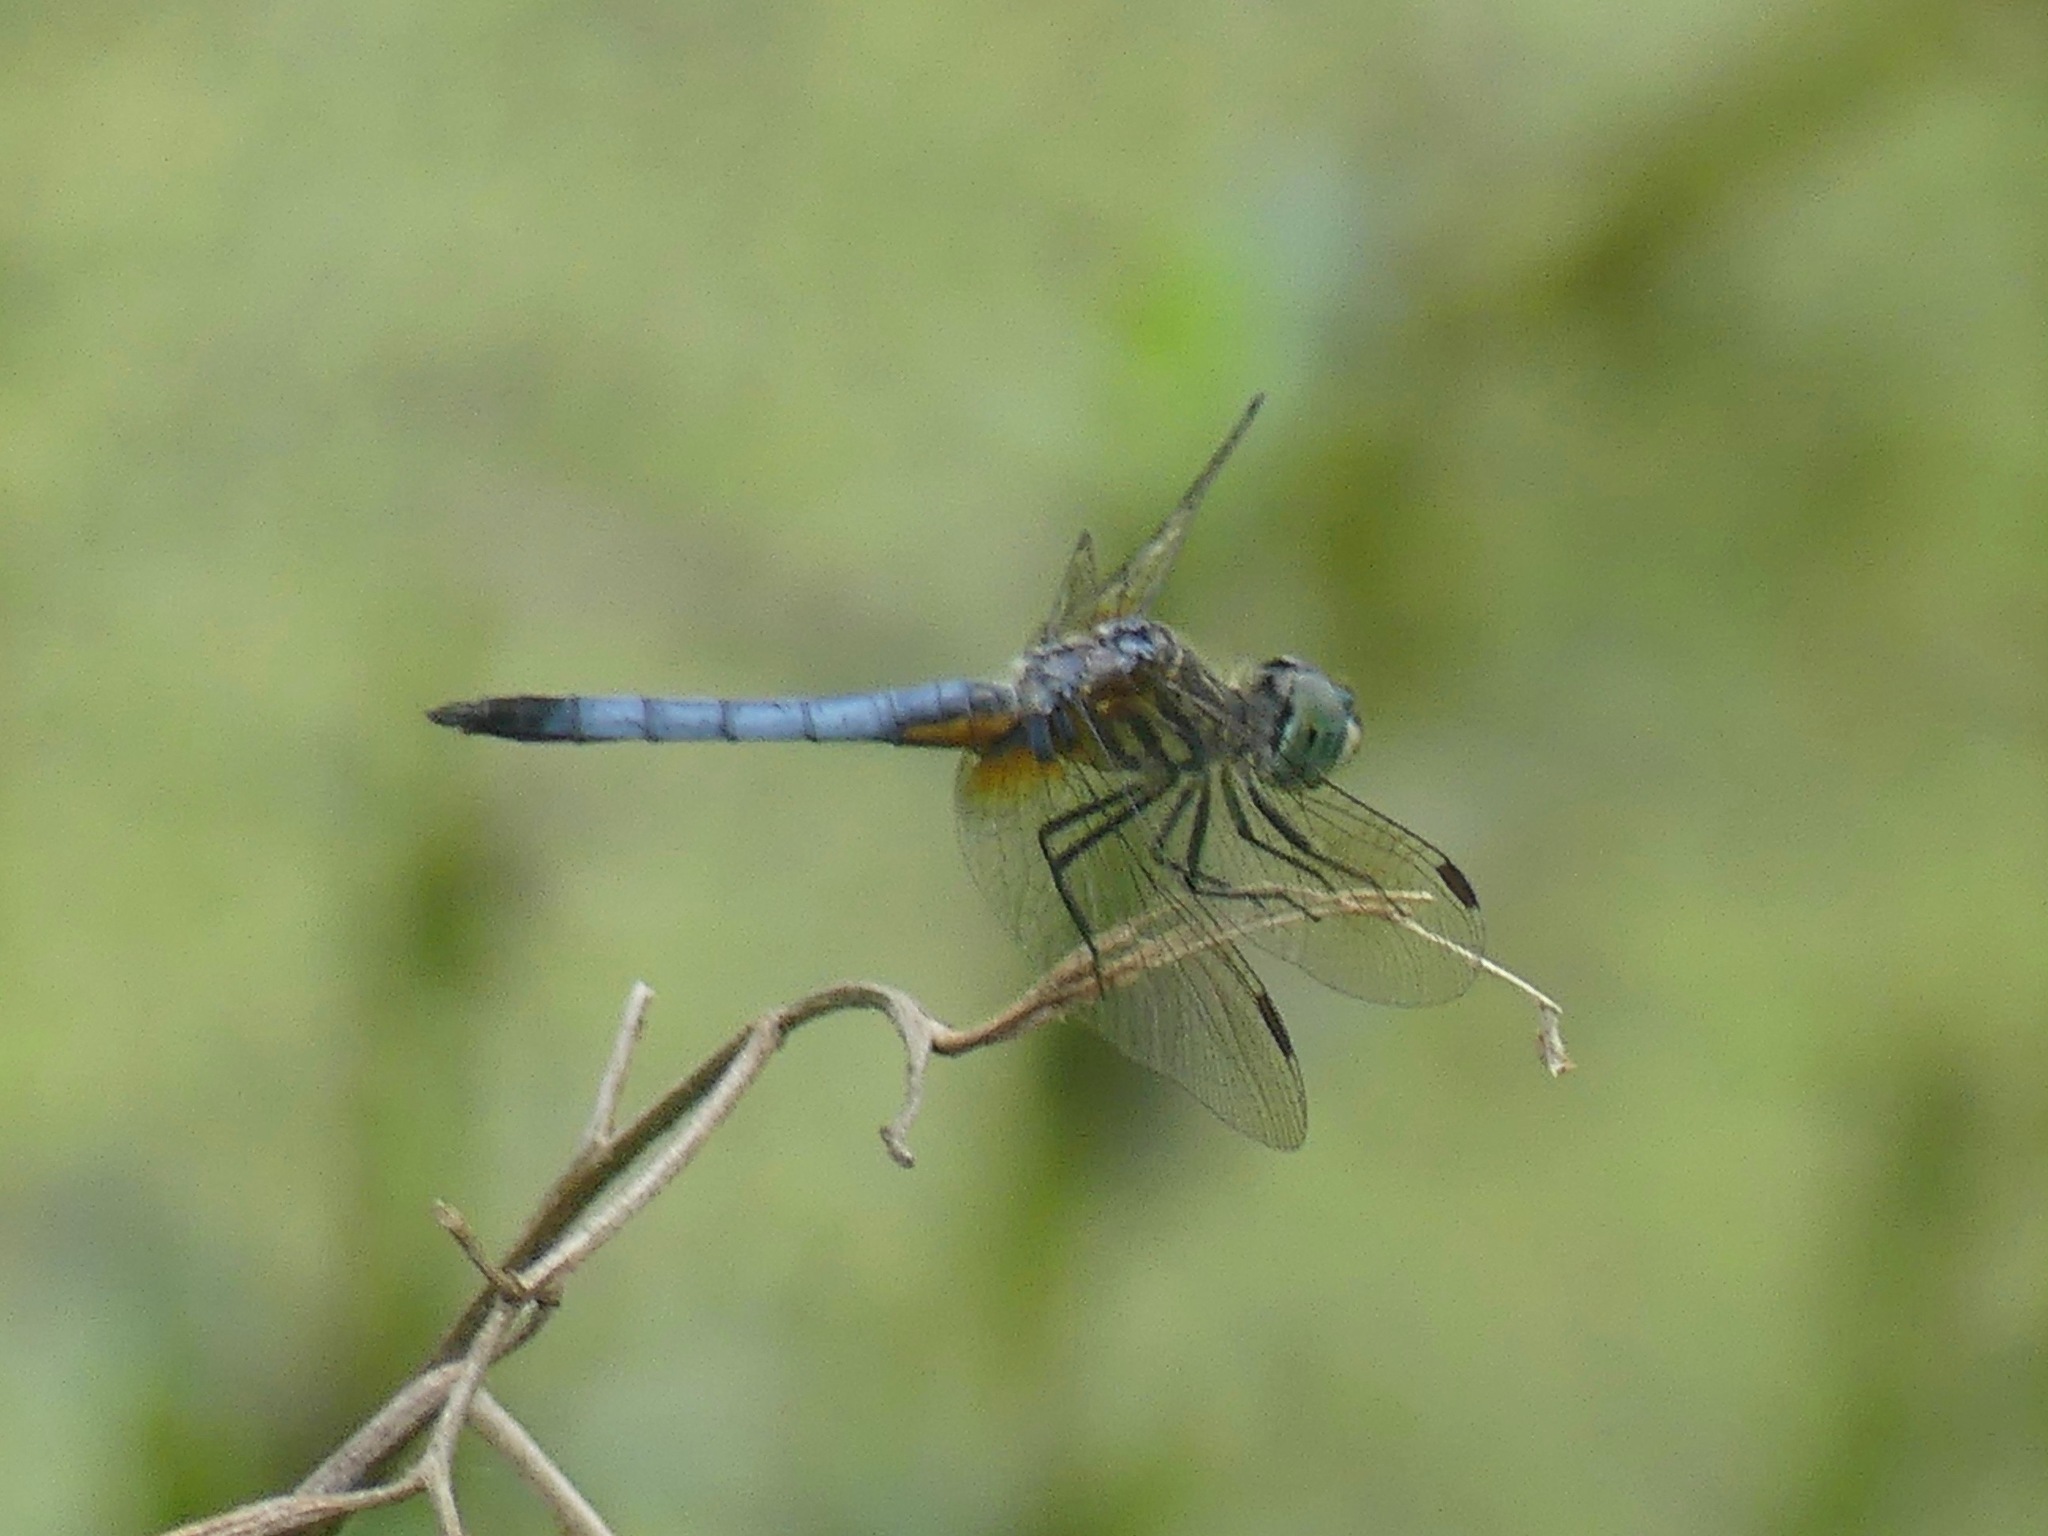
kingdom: Animalia
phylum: Arthropoda
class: Insecta
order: Odonata
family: Libellulidae
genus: Pachydiplax
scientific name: Pachydiplax longipennis
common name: Blue dasher
